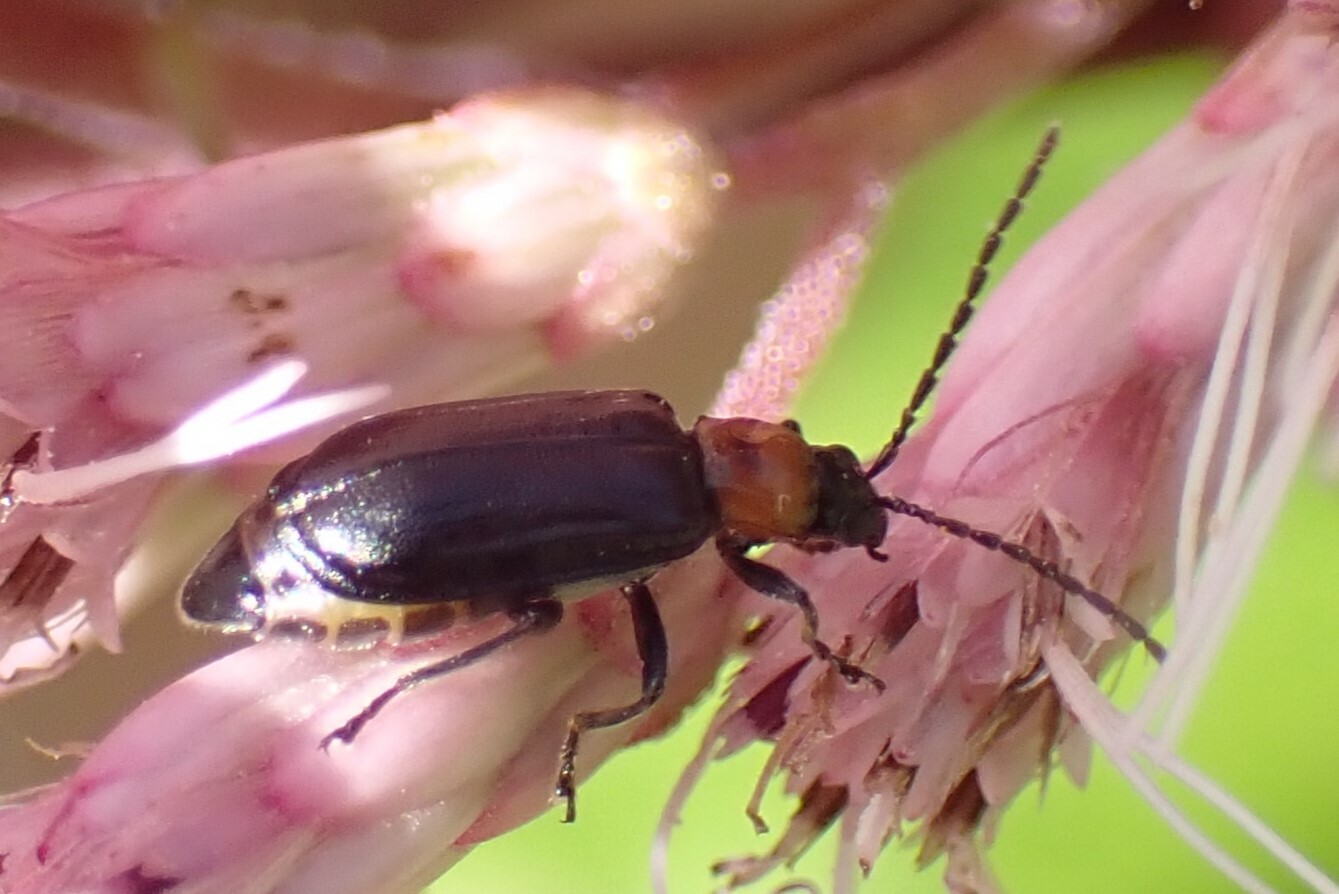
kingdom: Animalia
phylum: Arthropoda
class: Insecta
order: Coleoptera
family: Chrysomelidae
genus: Diabrotica
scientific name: Diabrotica cristata
